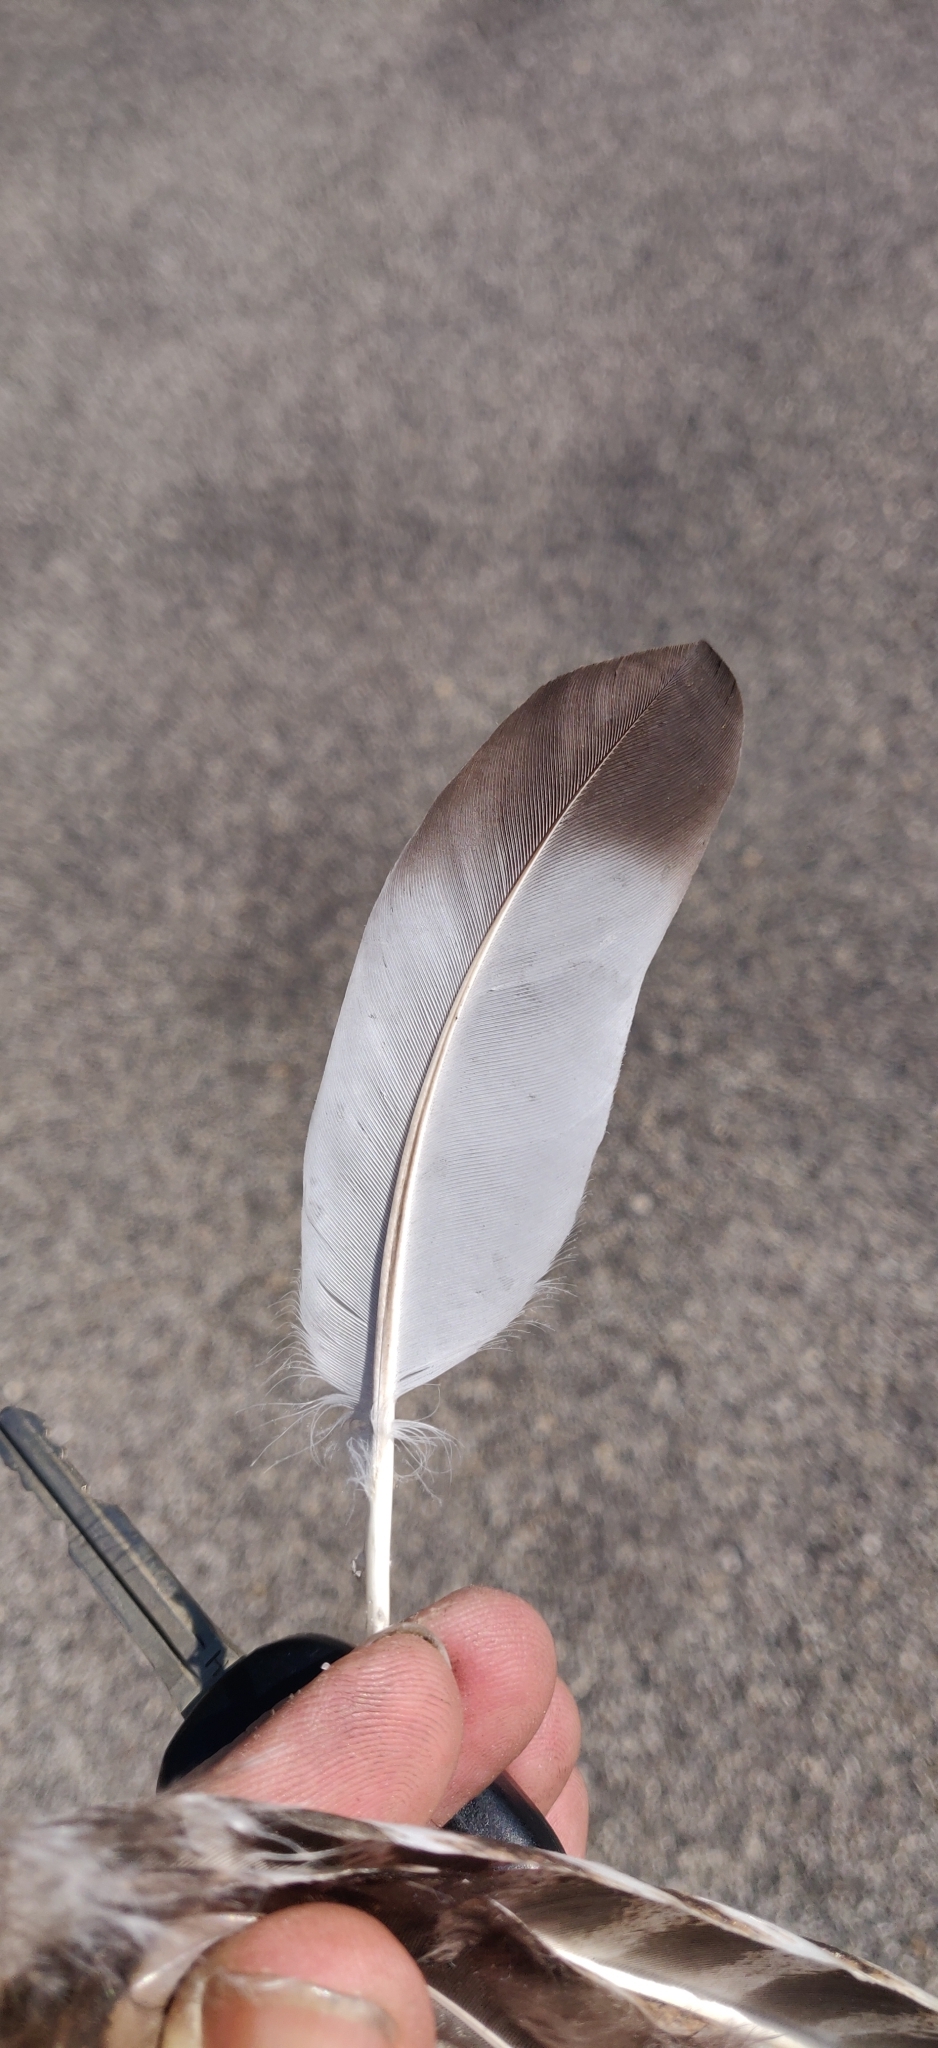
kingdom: Animalia
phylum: Chordata
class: Aves
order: Columbiformes
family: Columbidae
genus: Columba
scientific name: Columba livia
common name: Rock pigeon
